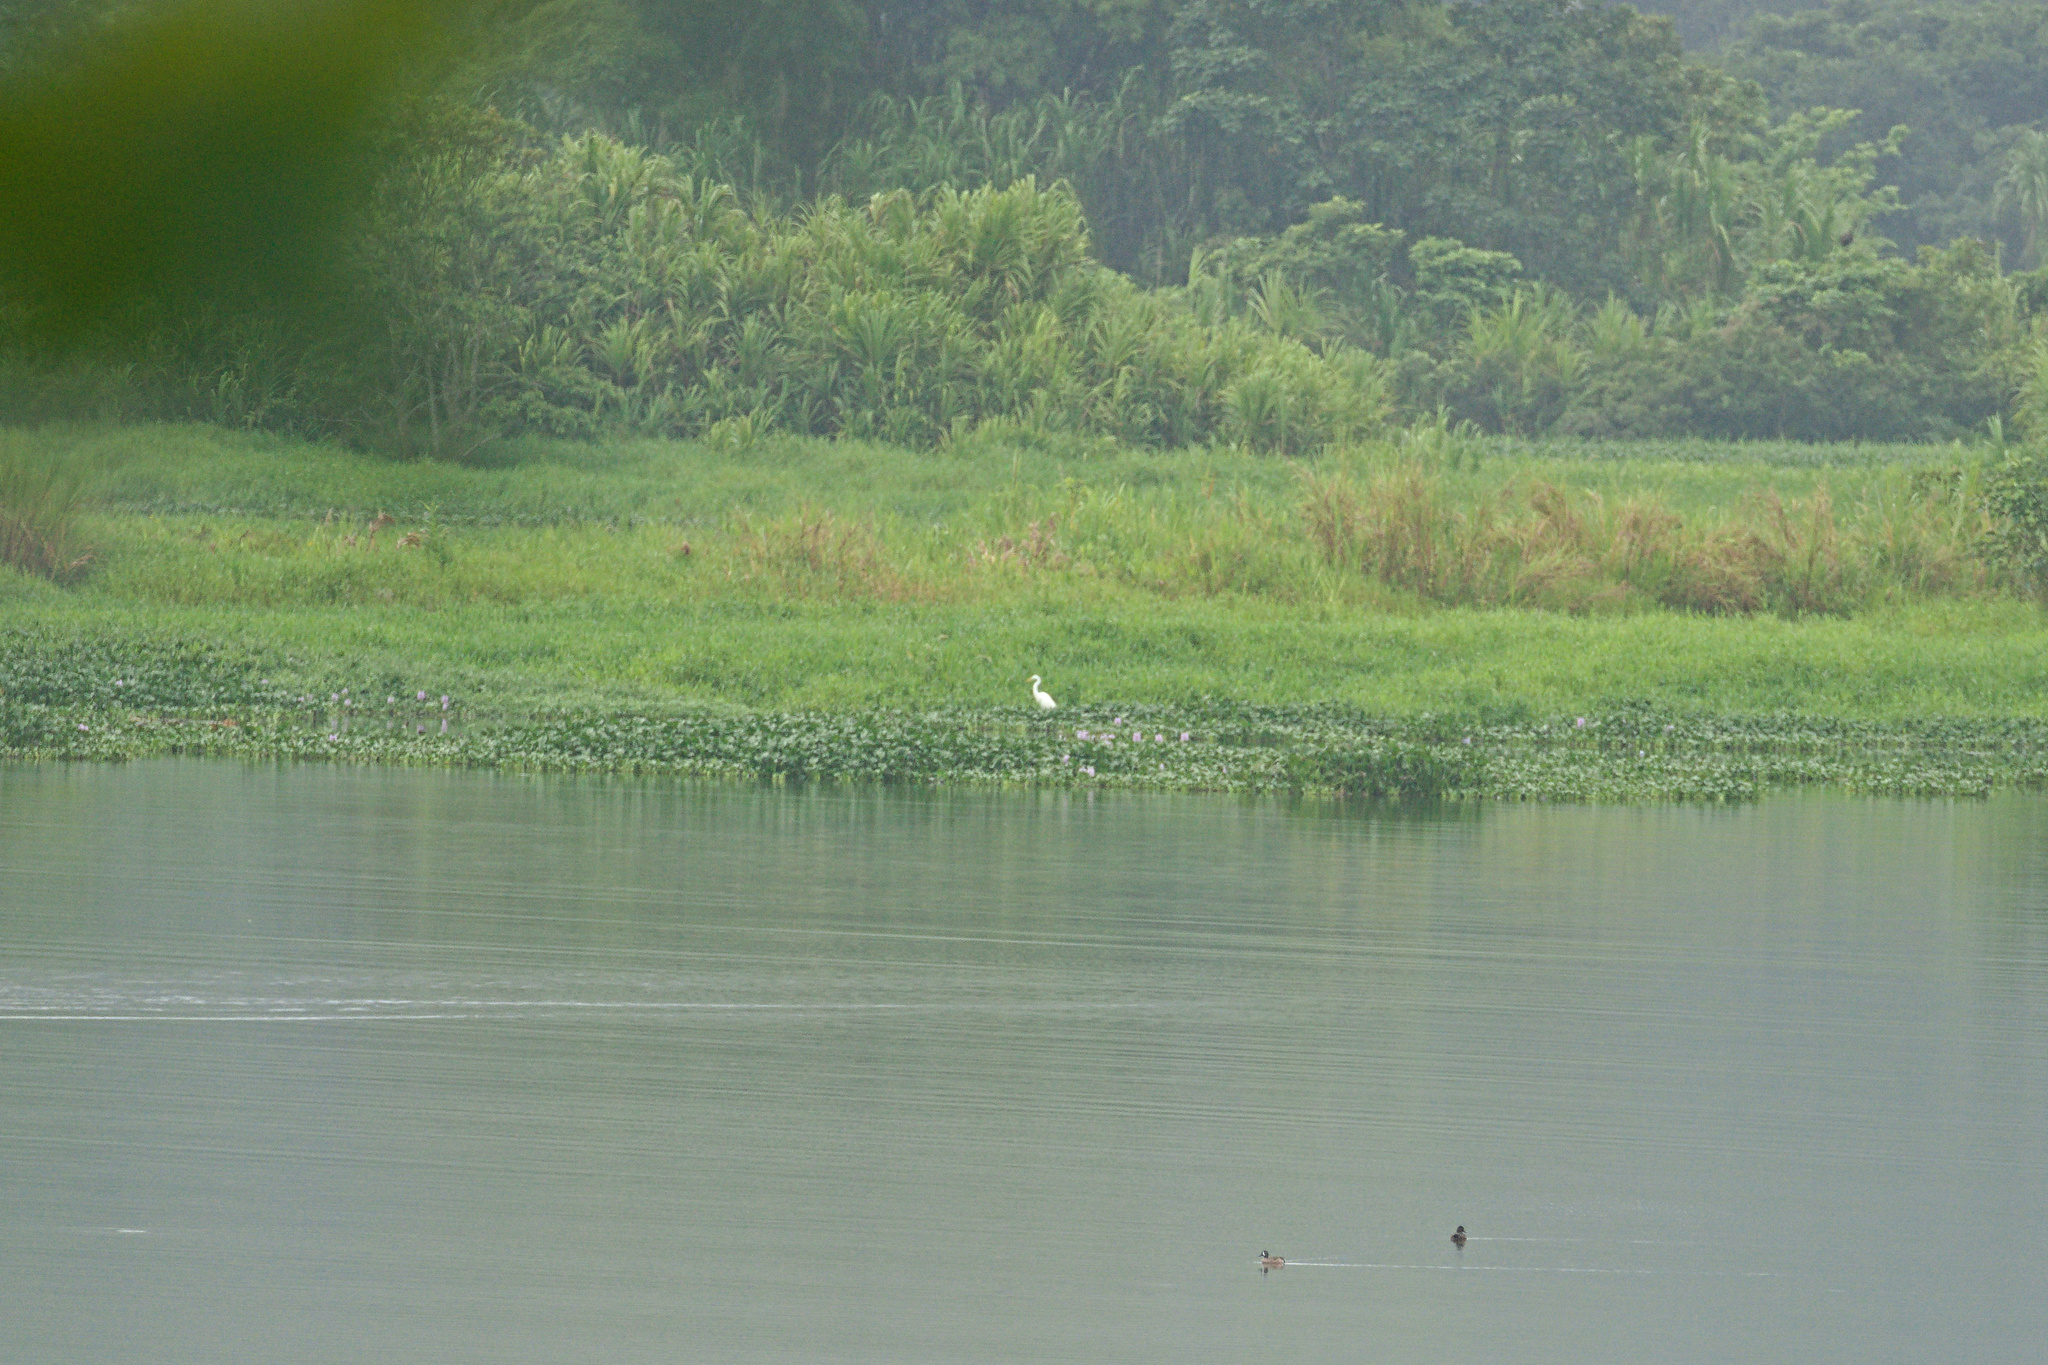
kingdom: Animalia
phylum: Chordata
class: Aves
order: Pelecaniformes
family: Ardeidae
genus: Ardea
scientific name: Ardea alba
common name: Great egret
